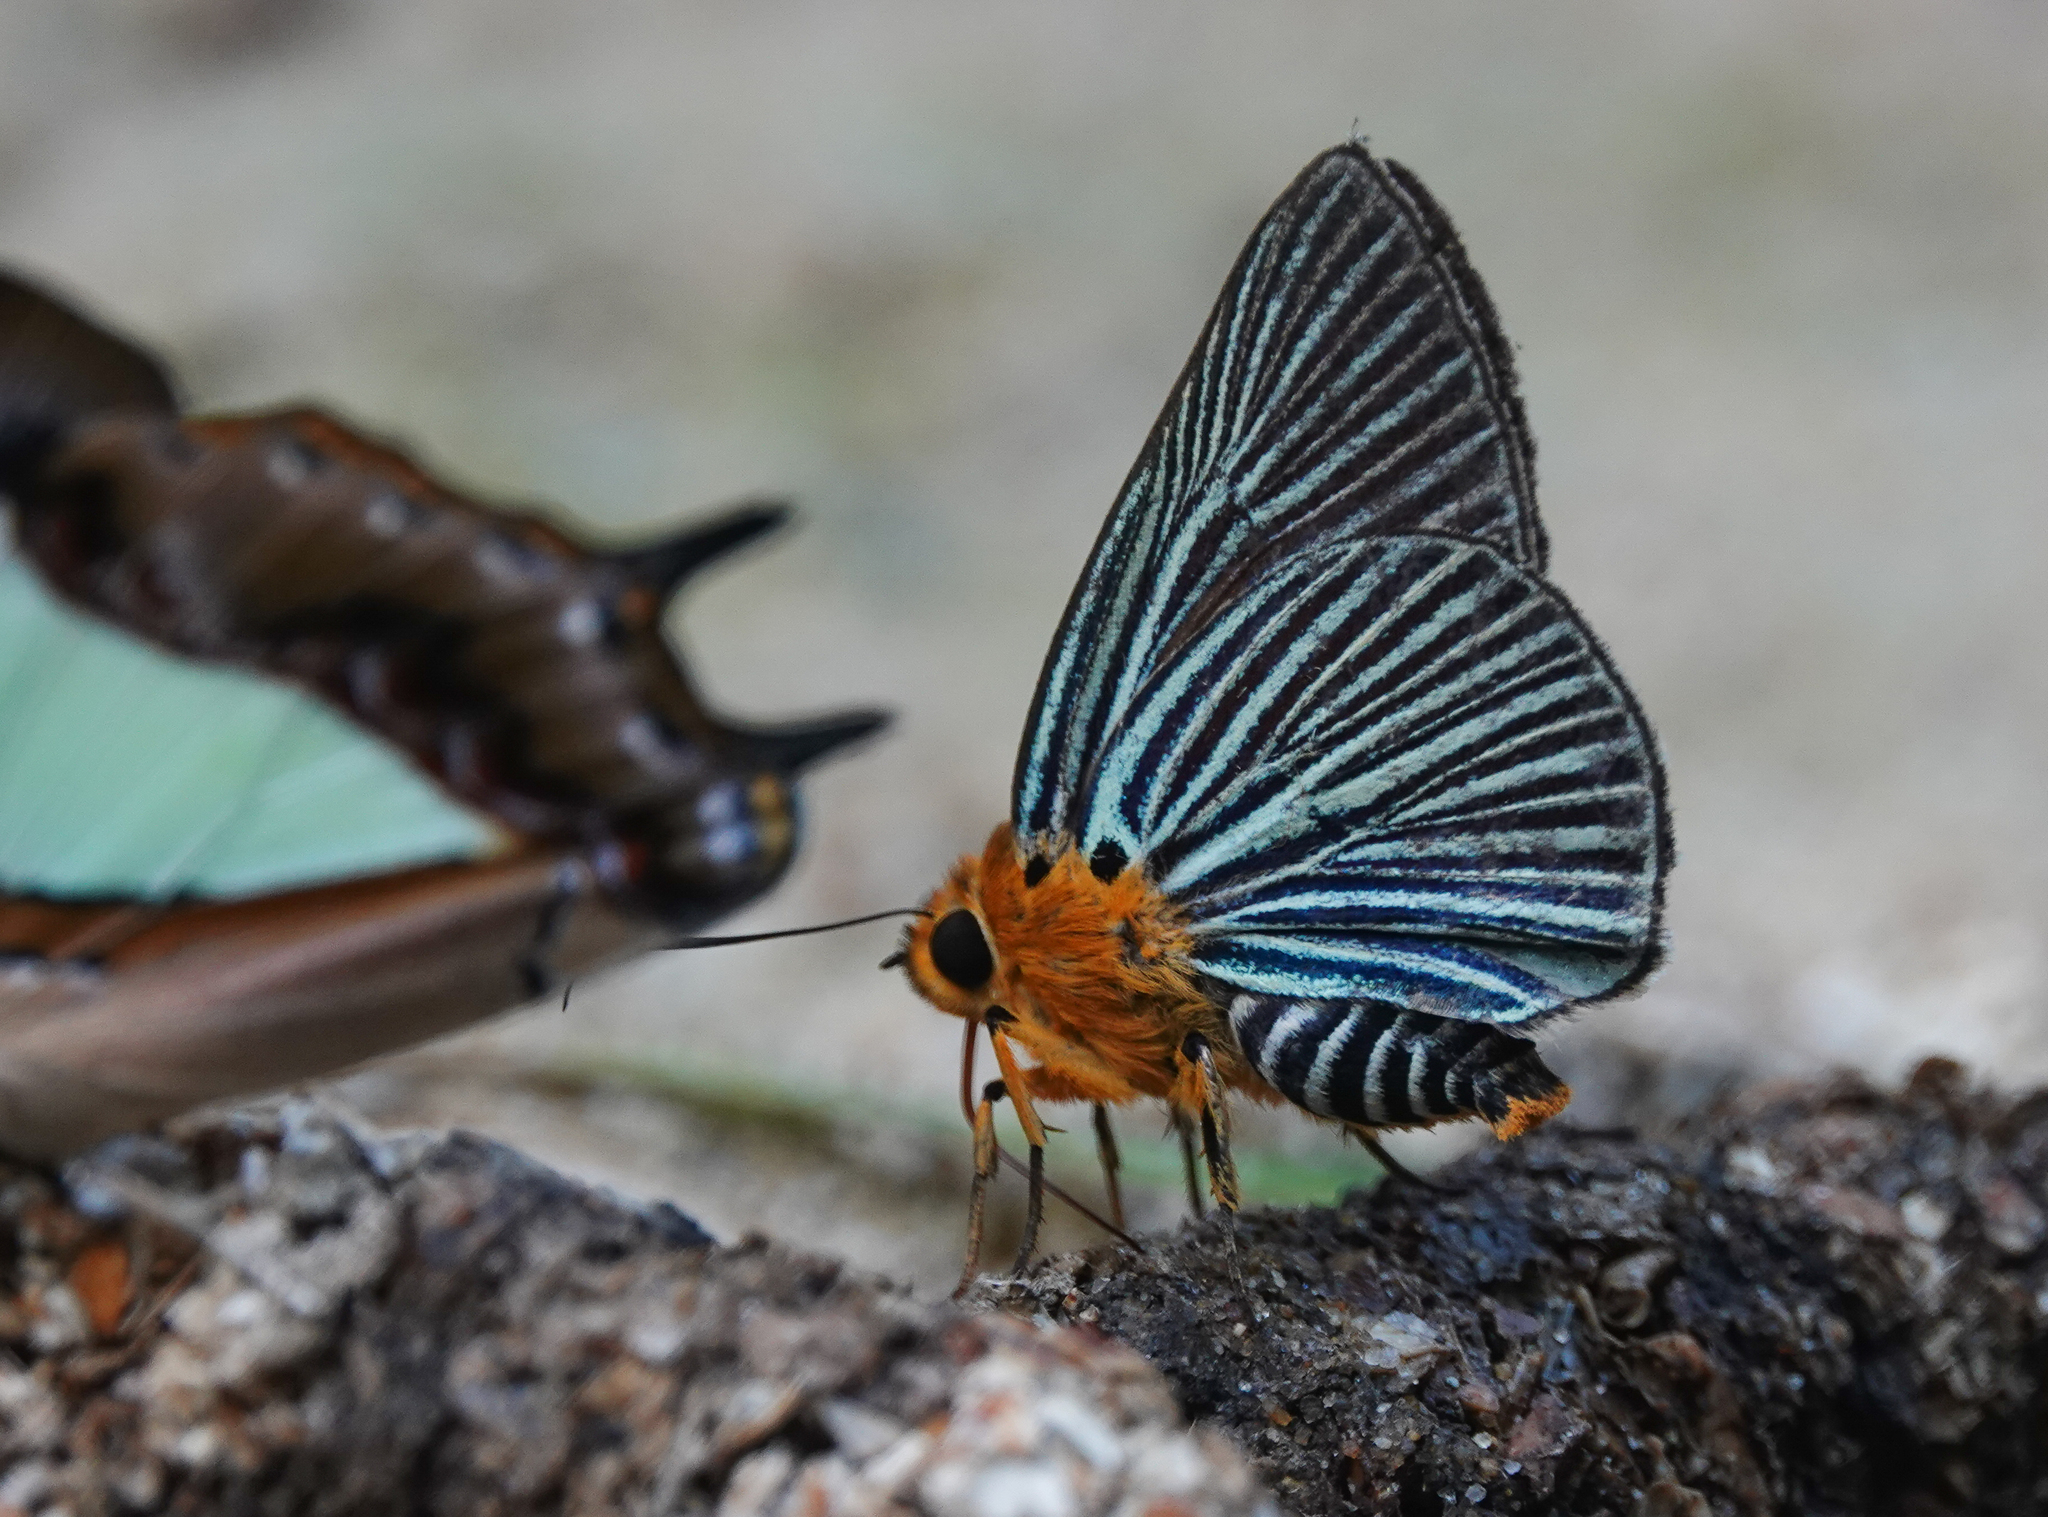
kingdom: Animalia
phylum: Arthropoda
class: Insecta
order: Lepidoptera
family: Hesperiidae
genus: Bibasis
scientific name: Bibasis amara
